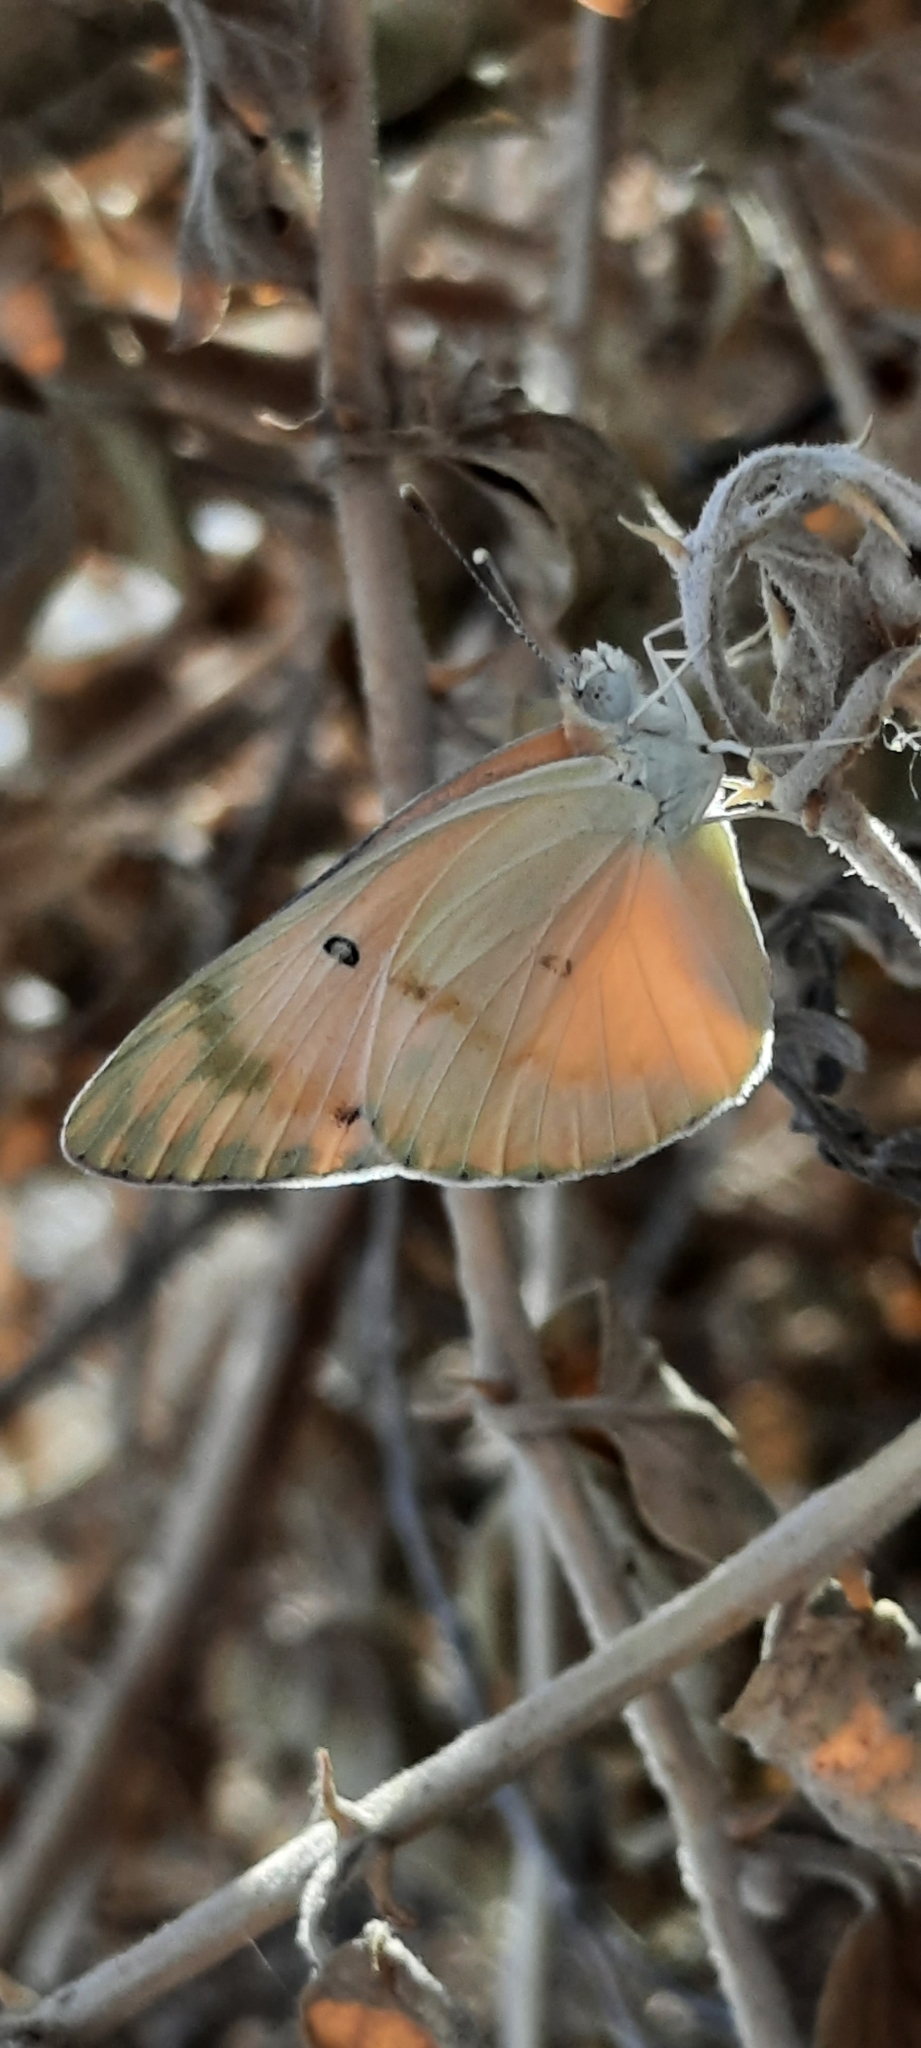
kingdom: Animalia
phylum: Arthropoda
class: Insecta
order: Lepidoptera
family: Pieridae
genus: Colotis
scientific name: Colotis fausta
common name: Large salmon arab
